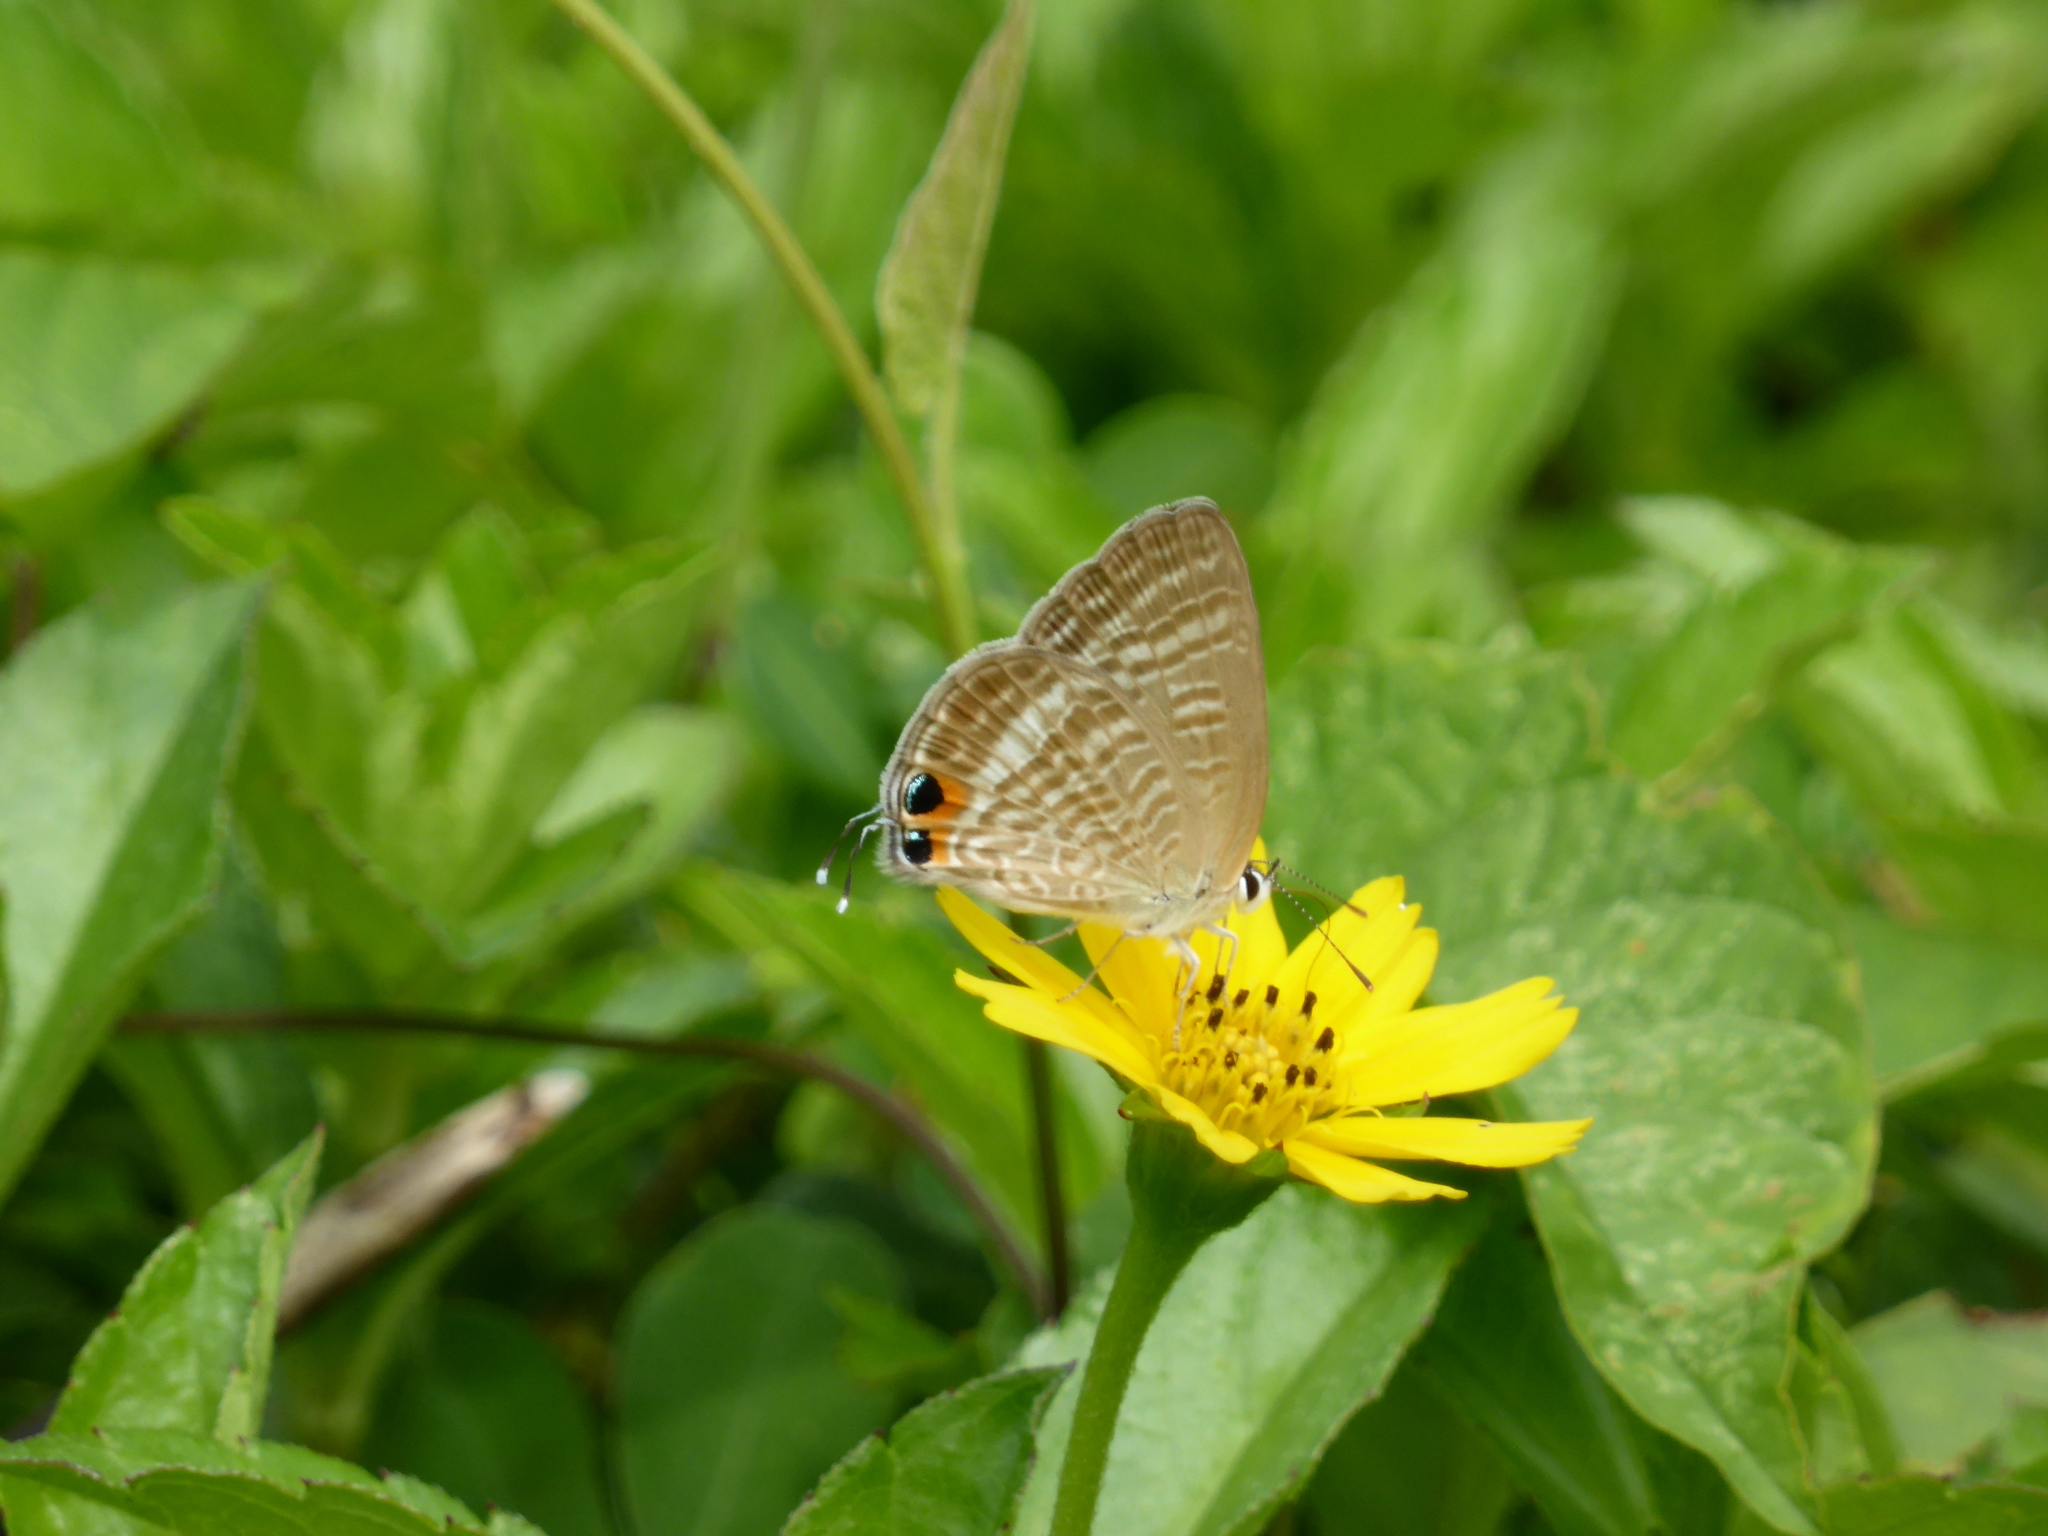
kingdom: Animalia
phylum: Arthropoda
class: Insecta
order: Lepidoptera
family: Lycaenidae
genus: Lampides
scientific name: Lampides boeticus
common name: Long-tailed blue
